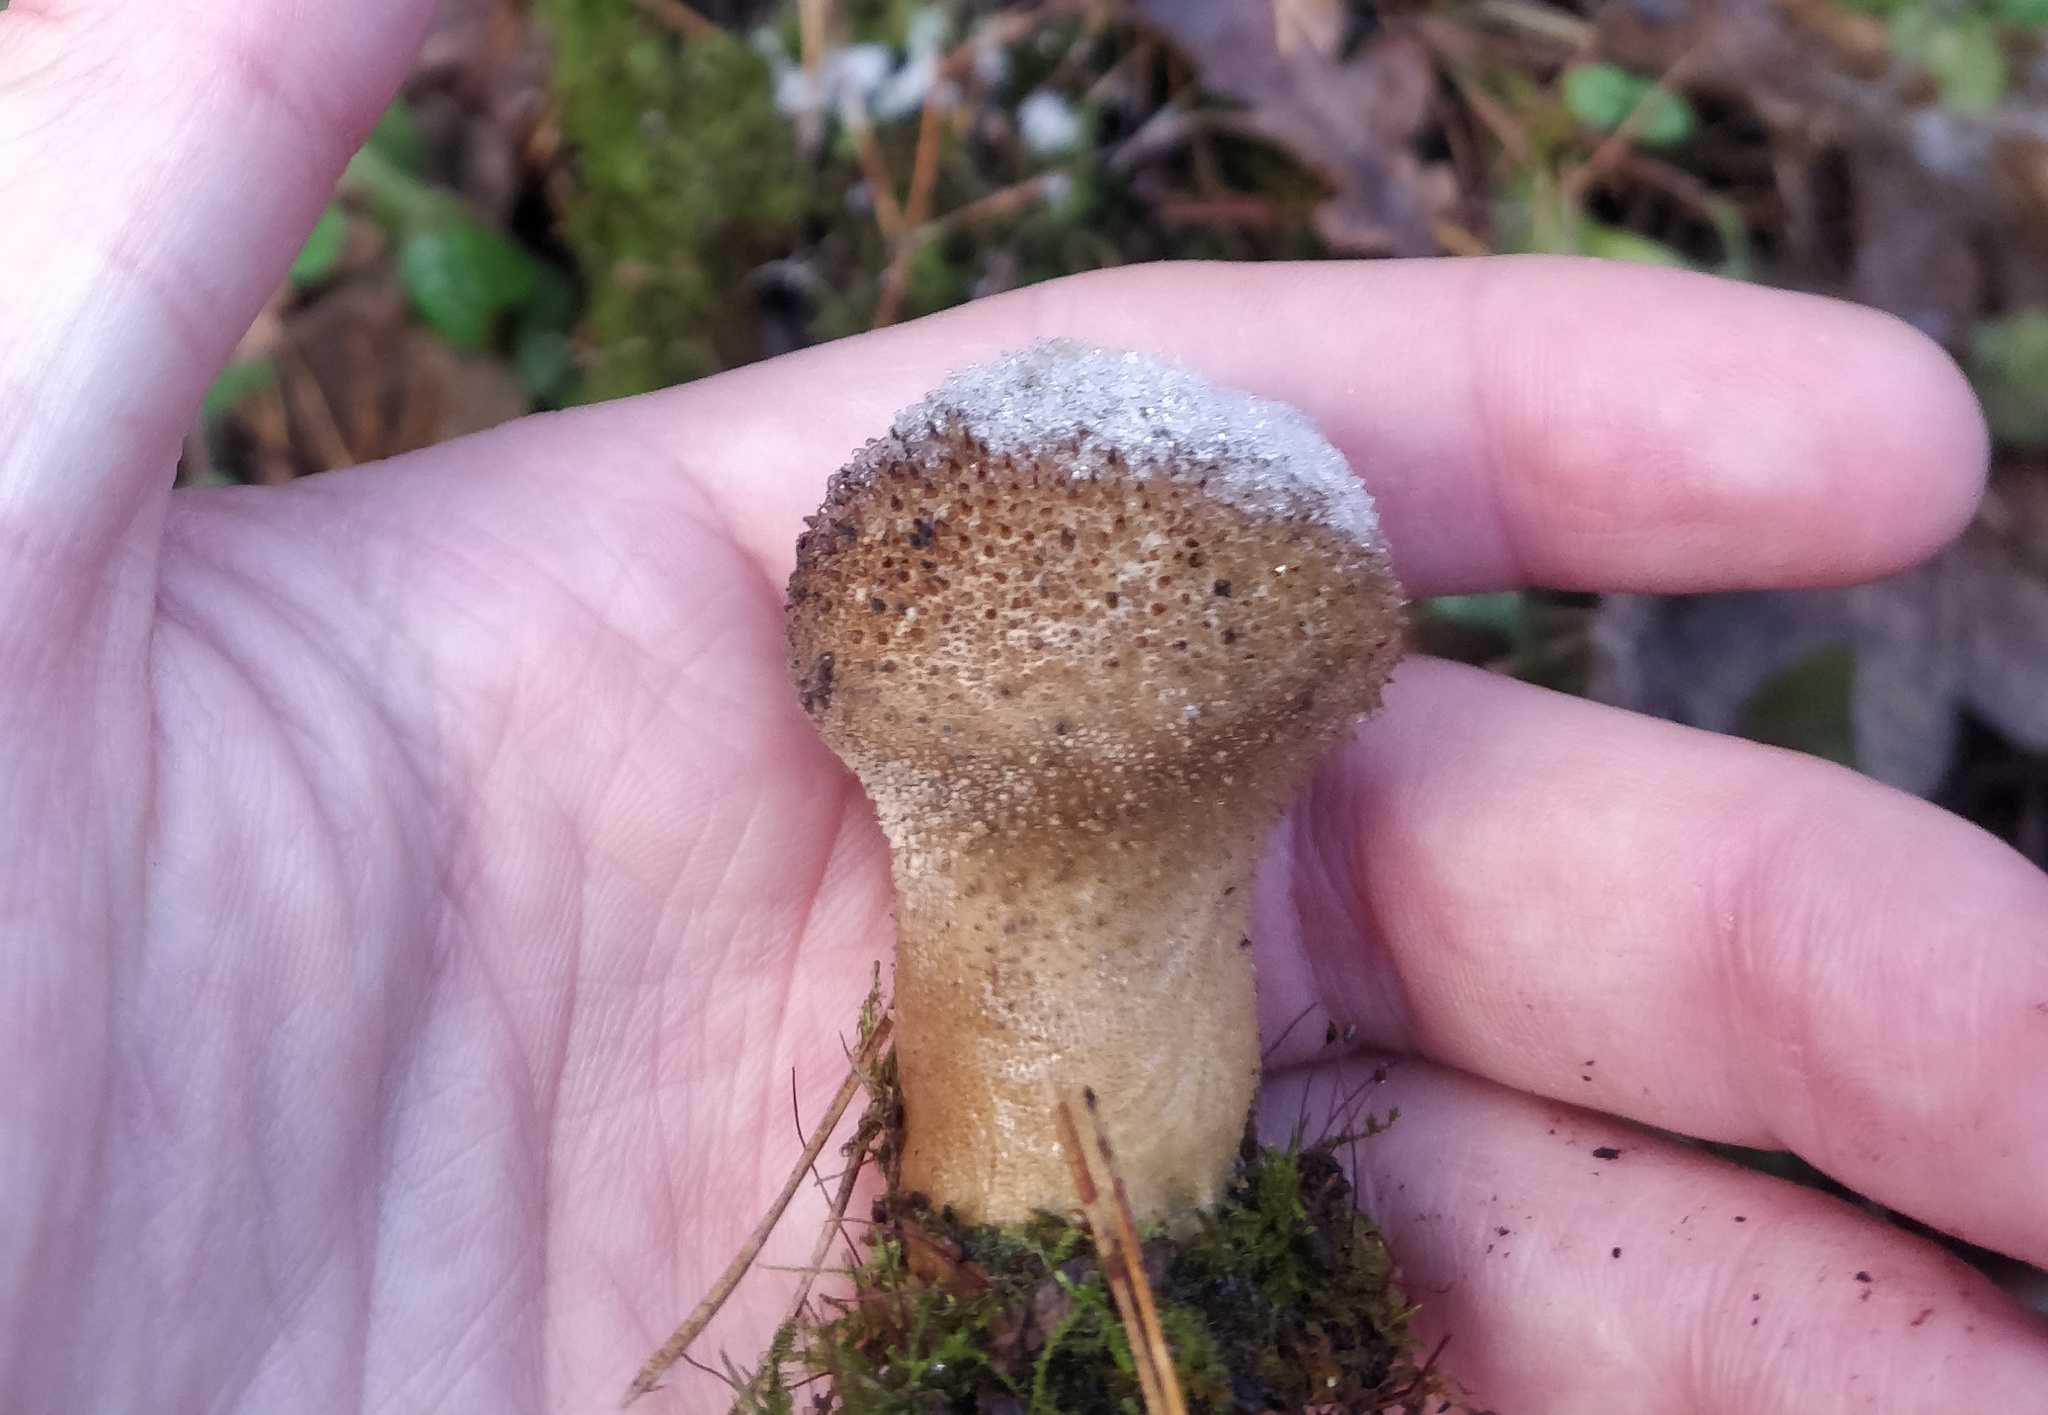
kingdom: Fungi
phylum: Basidiomycota
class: Agaricomycetes
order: Agaricales
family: Lycoperdaceae
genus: Lycoperdon
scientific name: Lycoperdon perlatum
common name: Common puffball
